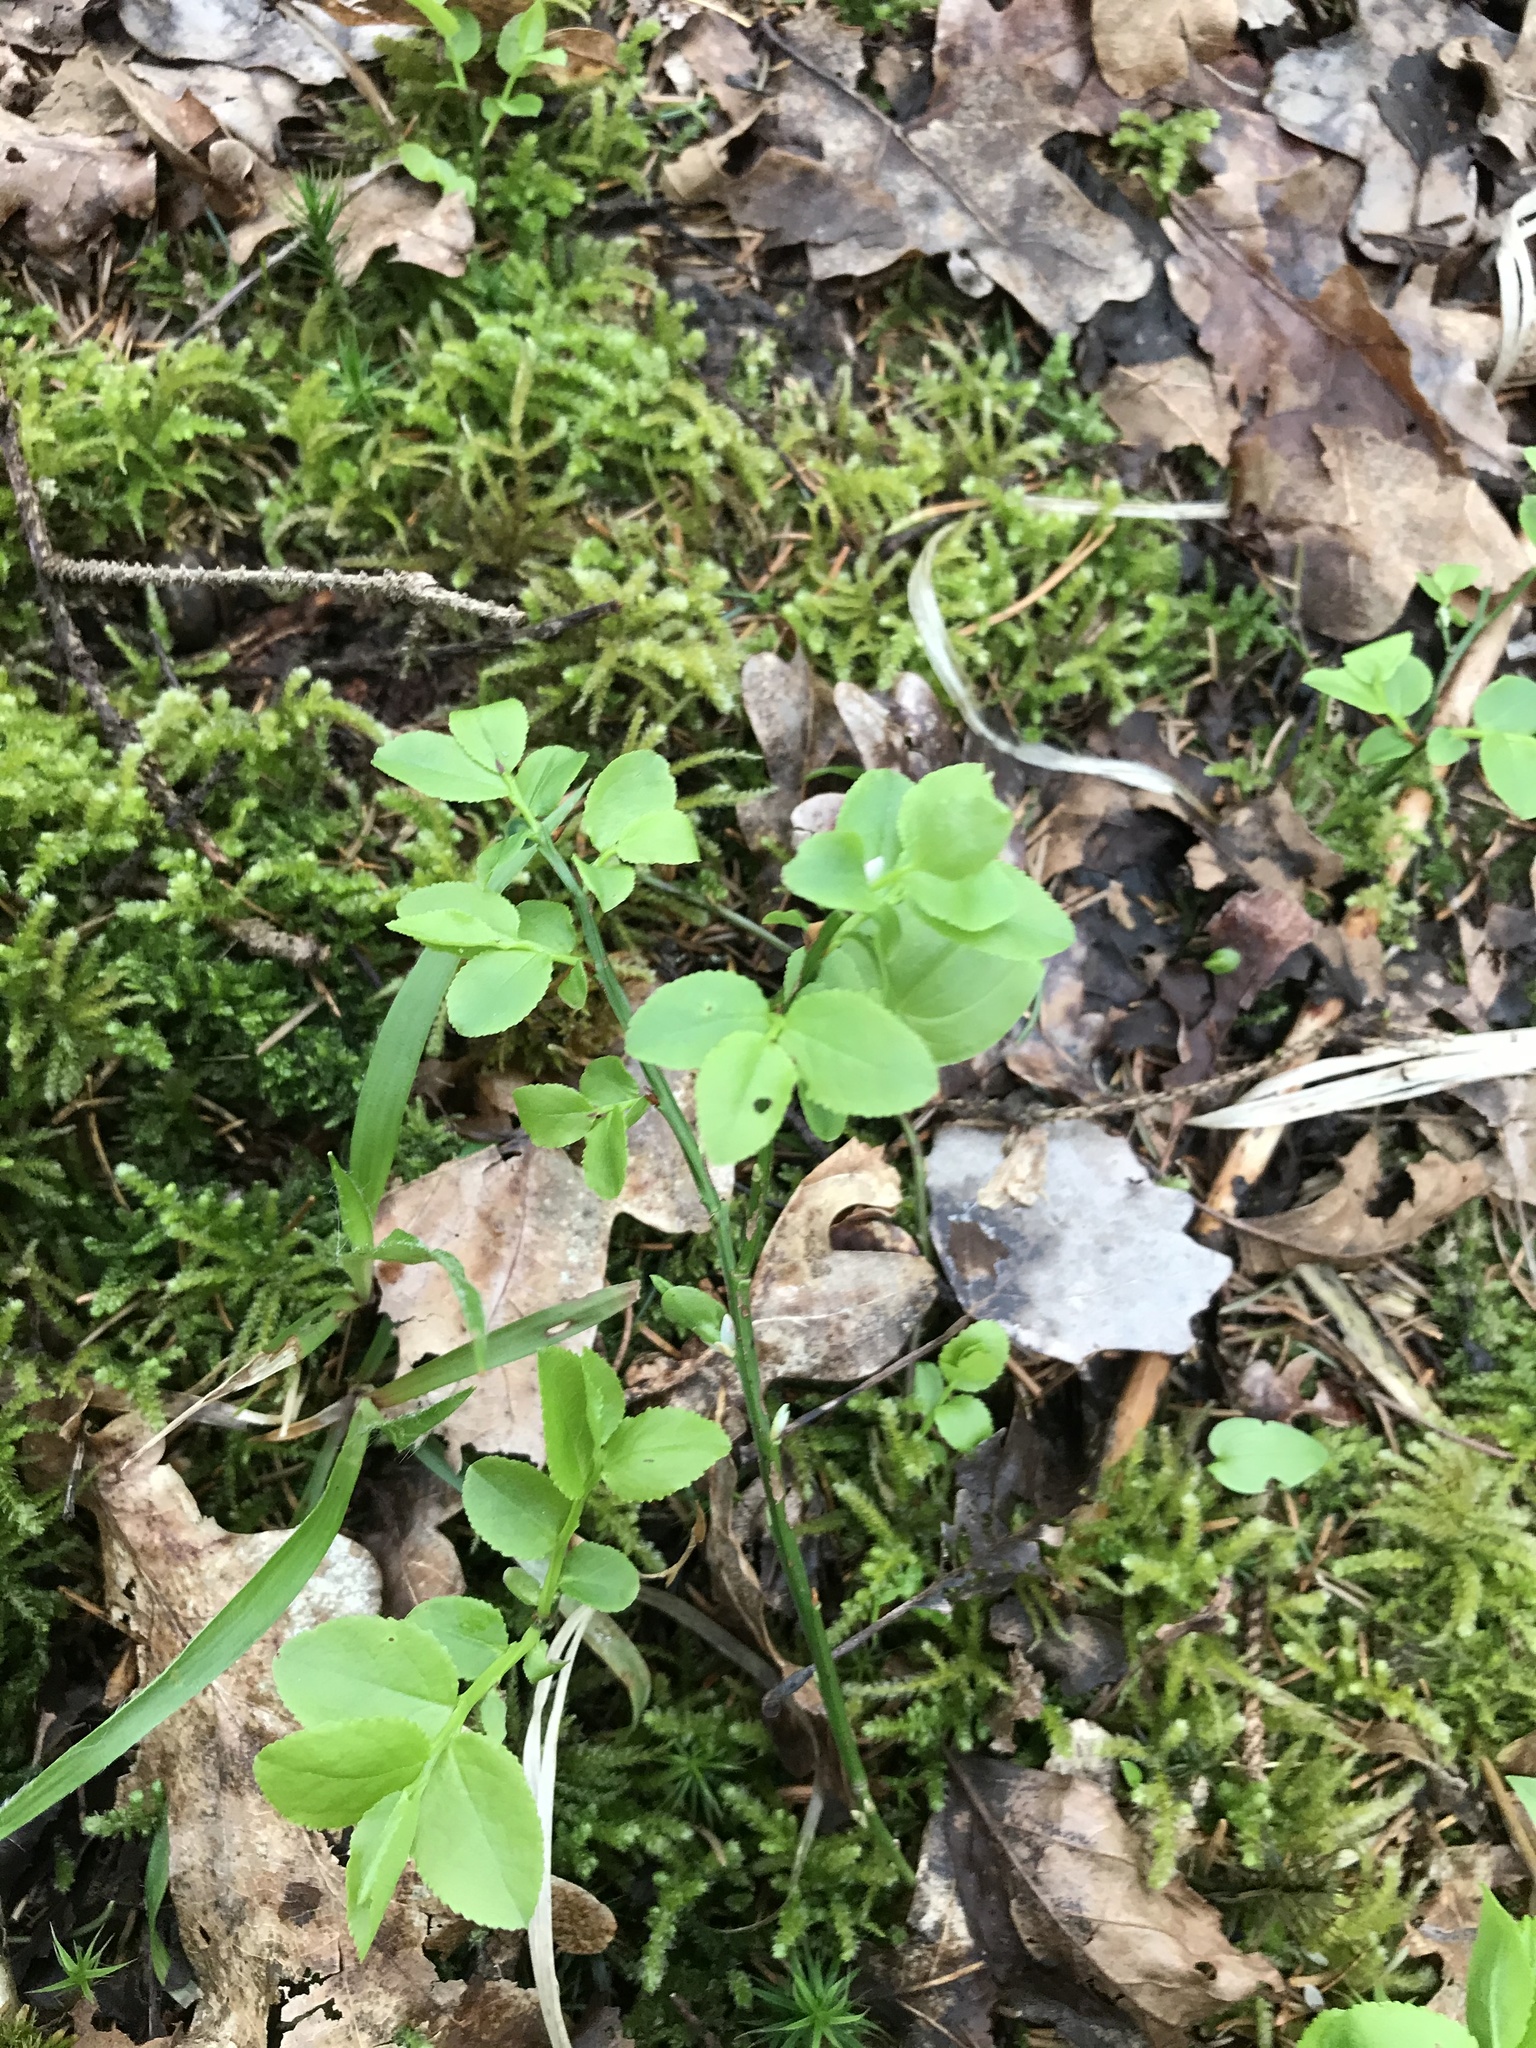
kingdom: Plantae
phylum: Tracheophyta
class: Magnoliopsida
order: Ericales
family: Ericaceae
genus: Vaccinium
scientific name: Vaccinium myrtillus
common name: Bilberry
